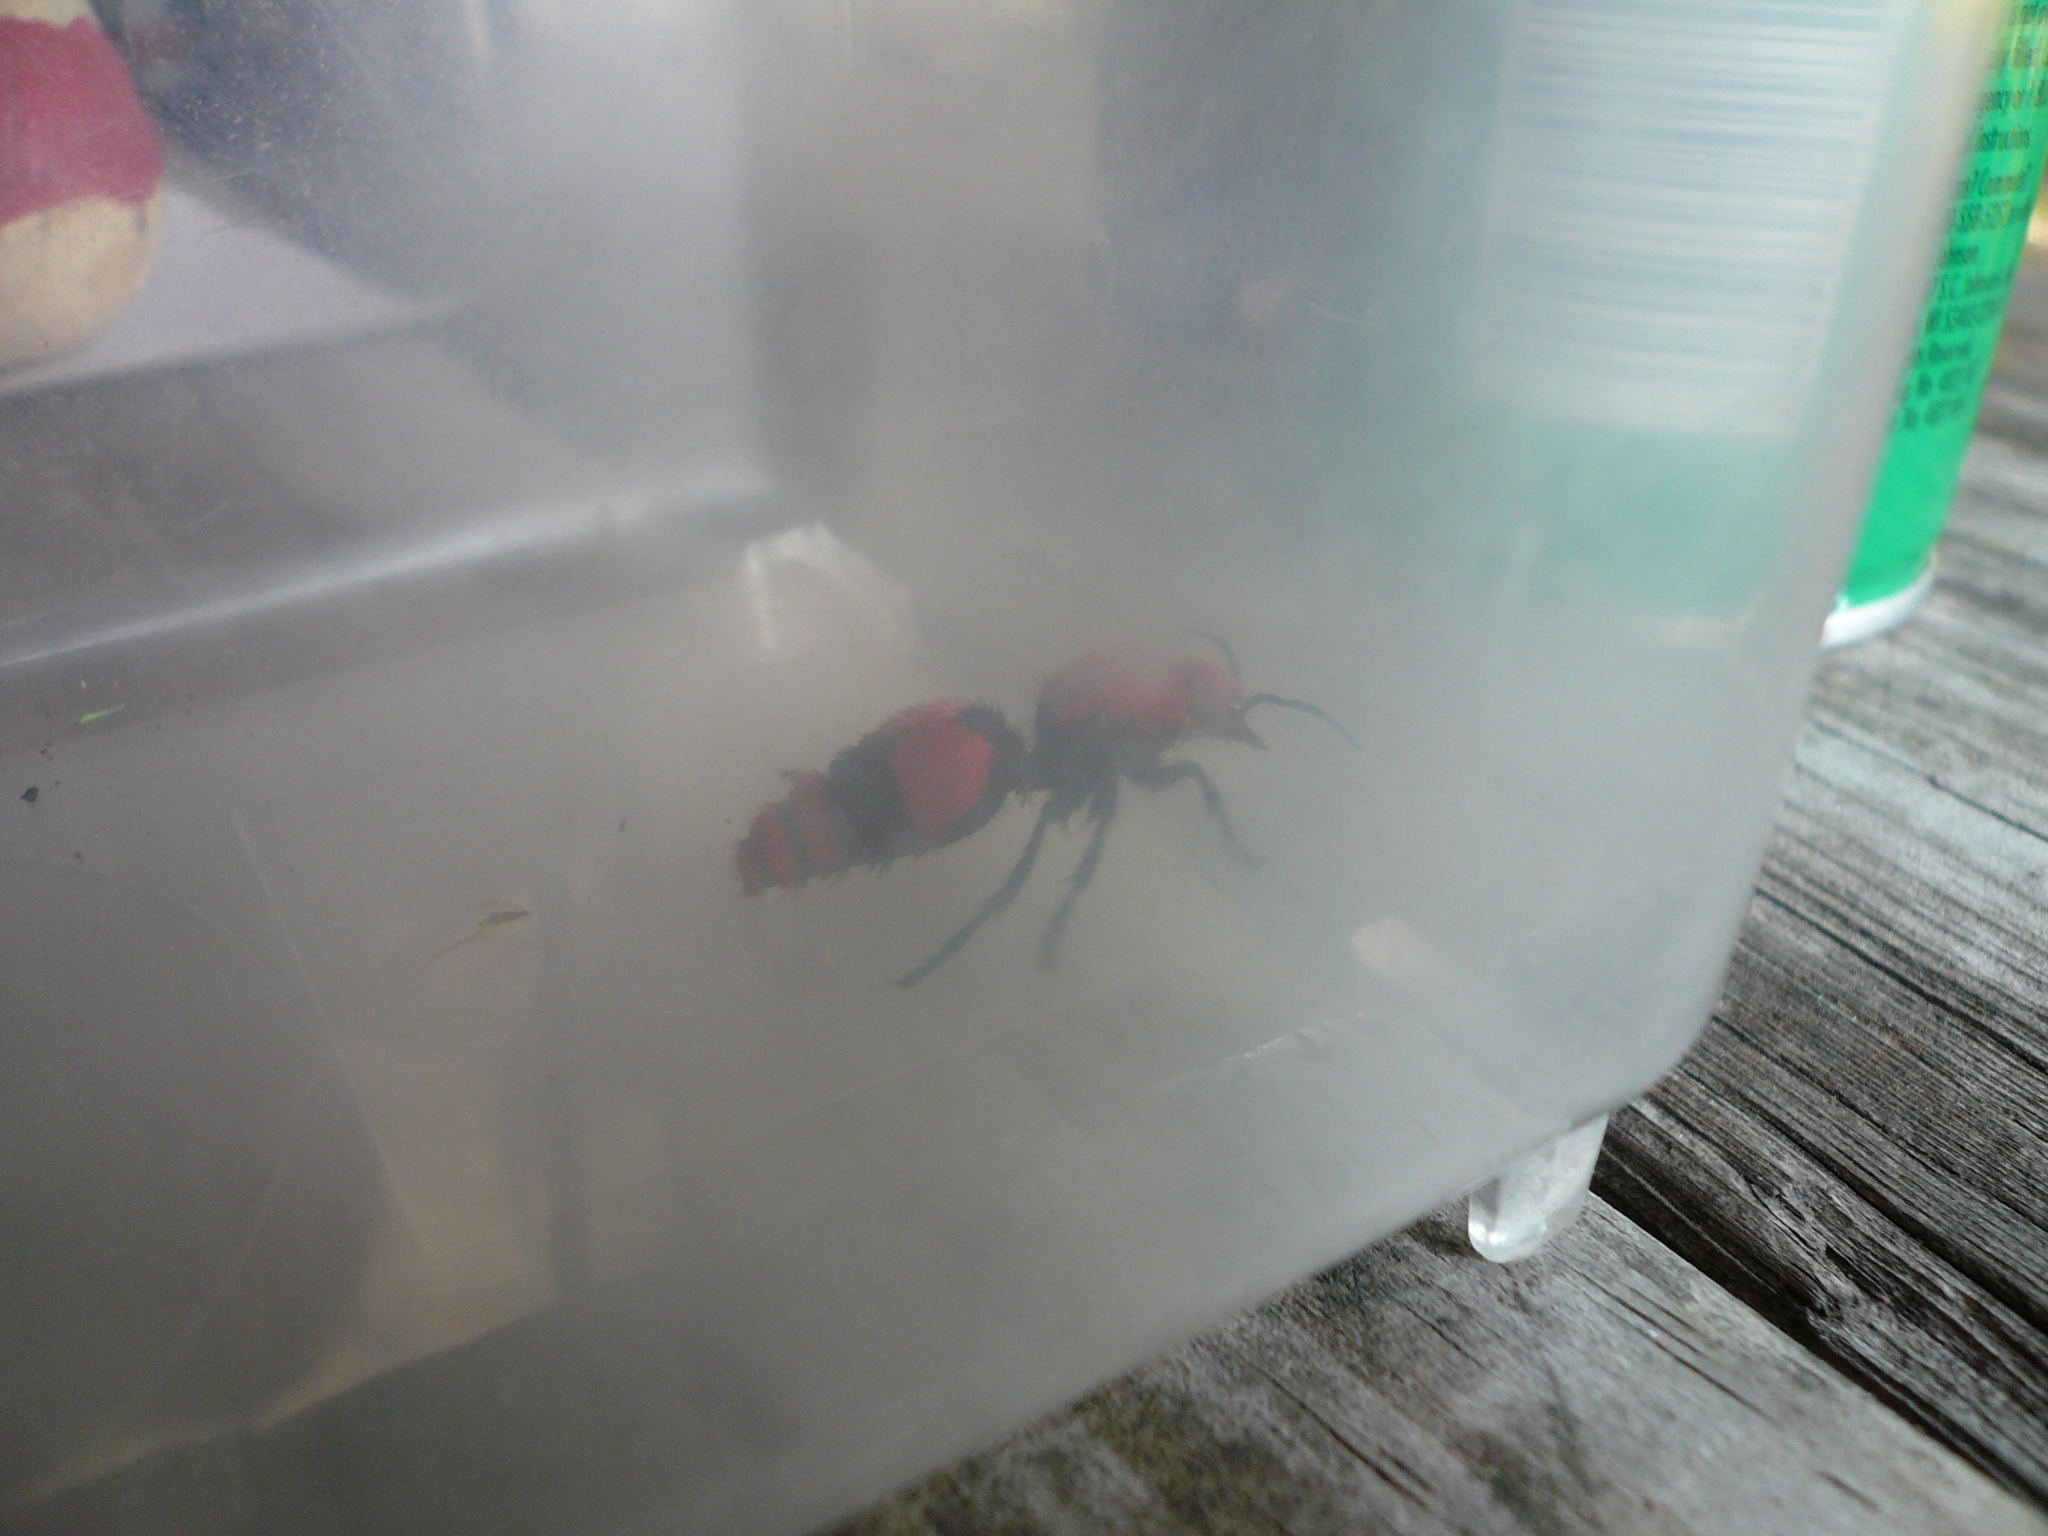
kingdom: Animalia
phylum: Arthropoda
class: Insecta
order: Hymenoptera
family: Mutillidae
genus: Dasymutilla
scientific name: Dasymutilla occidentalis
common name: Common eastern velvet ant
